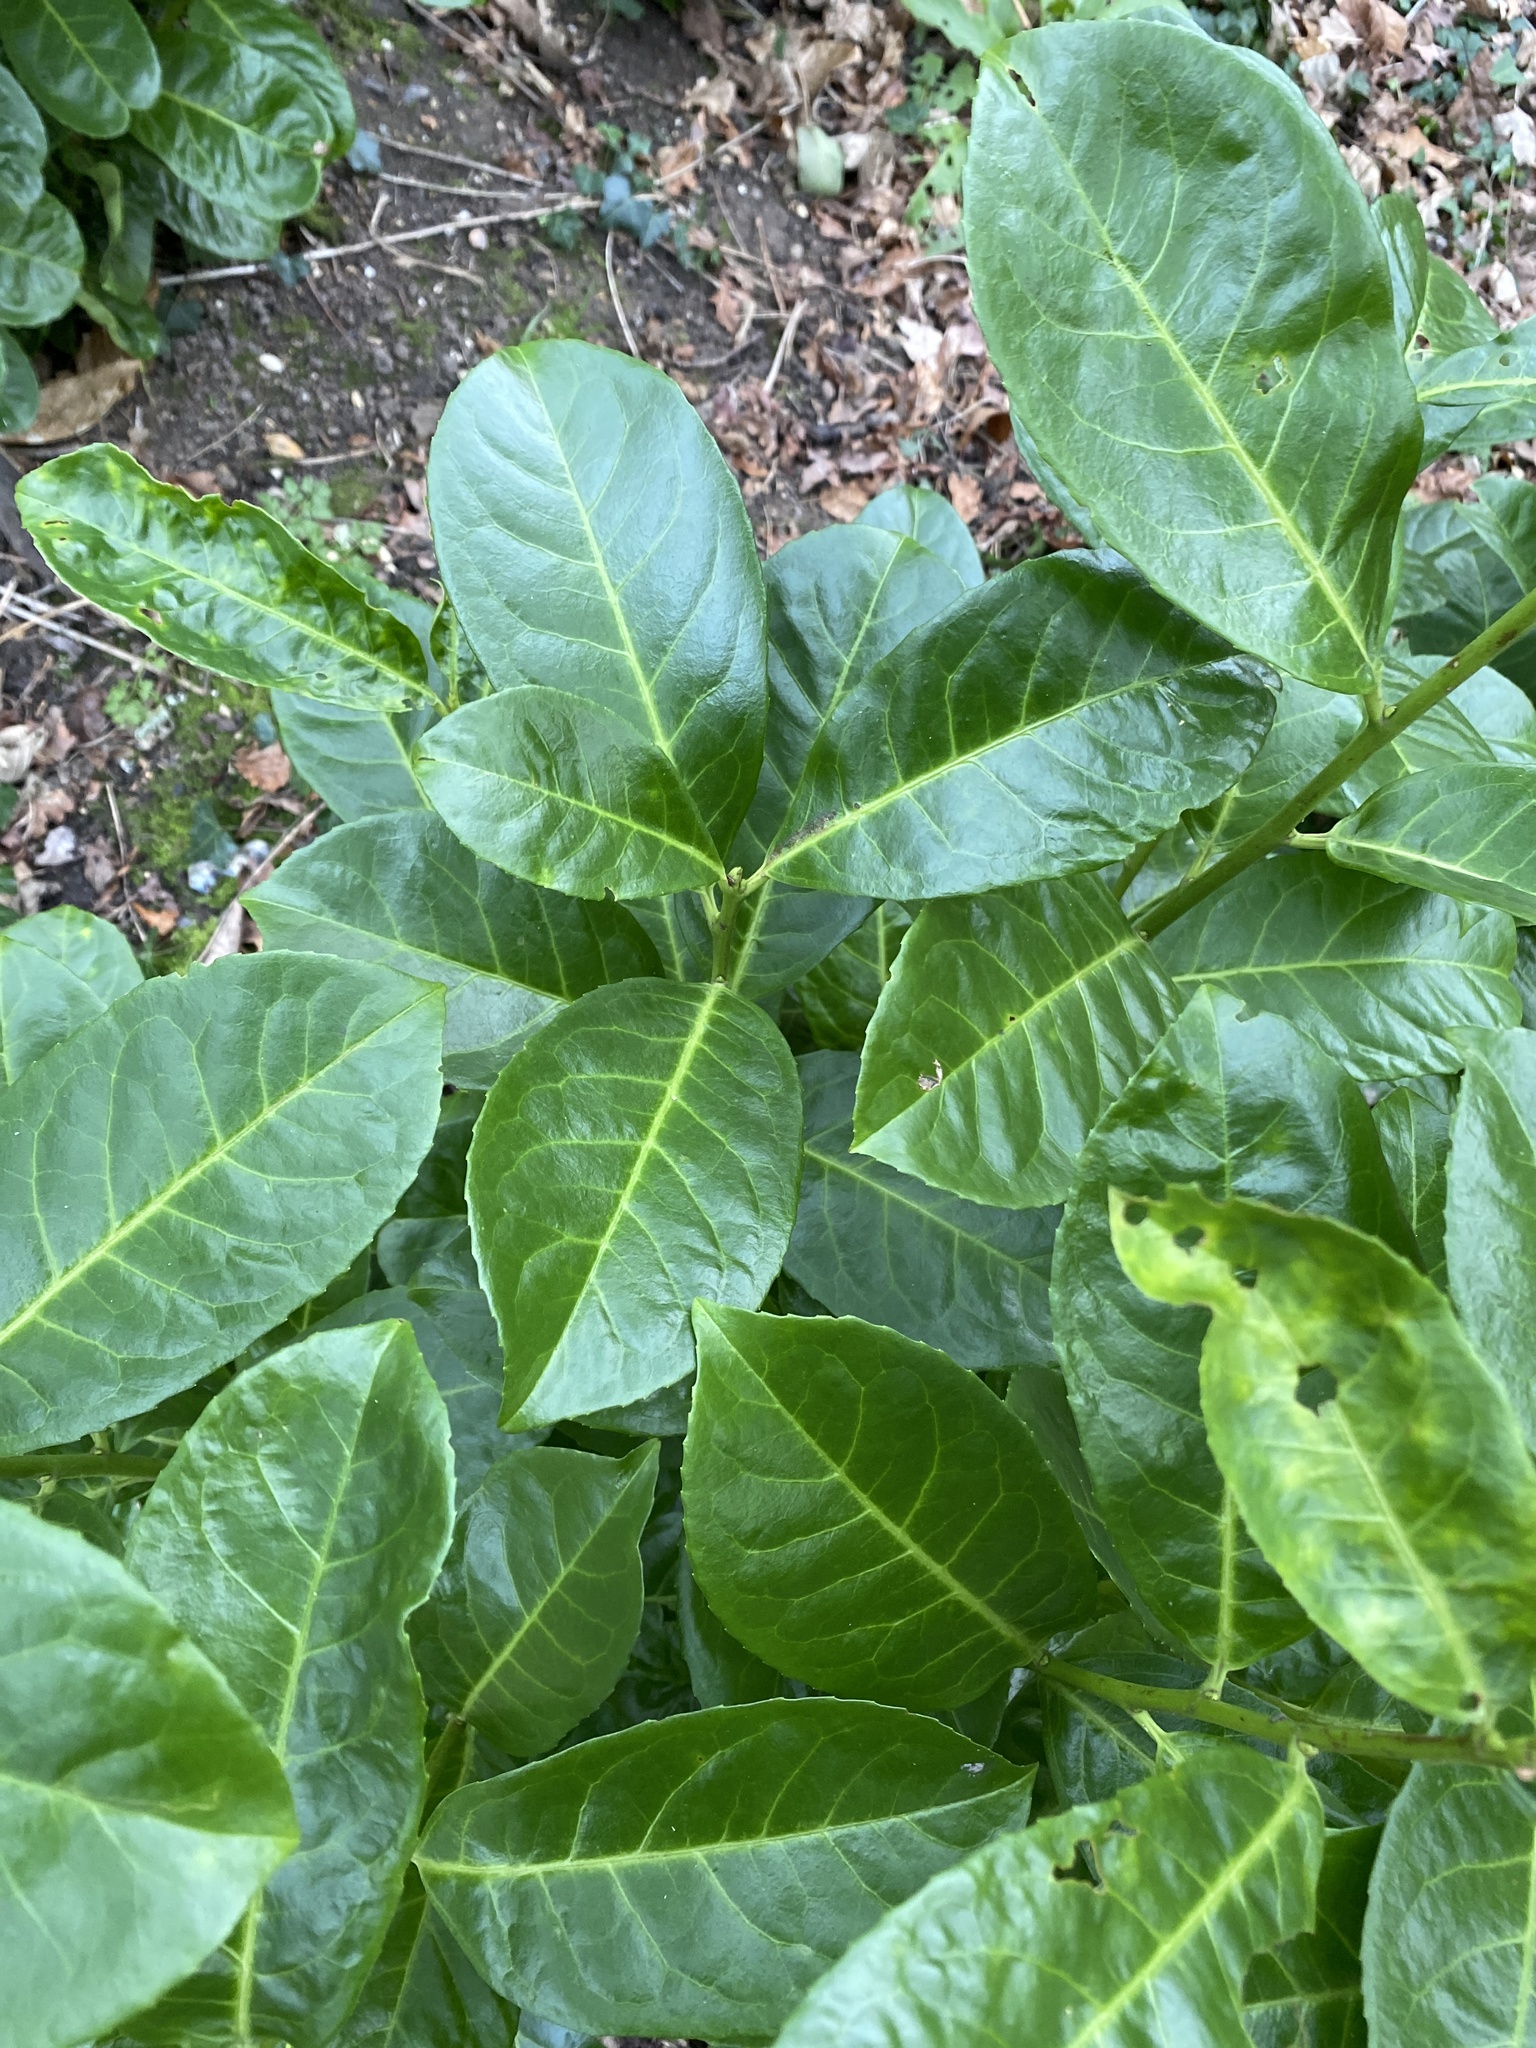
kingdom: Plantae
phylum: Tracheophyta
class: Magnoliopsida
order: Rosales
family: Rosaceae
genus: Prunus
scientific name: Prunus laurocerasus
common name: Cherry laurel
